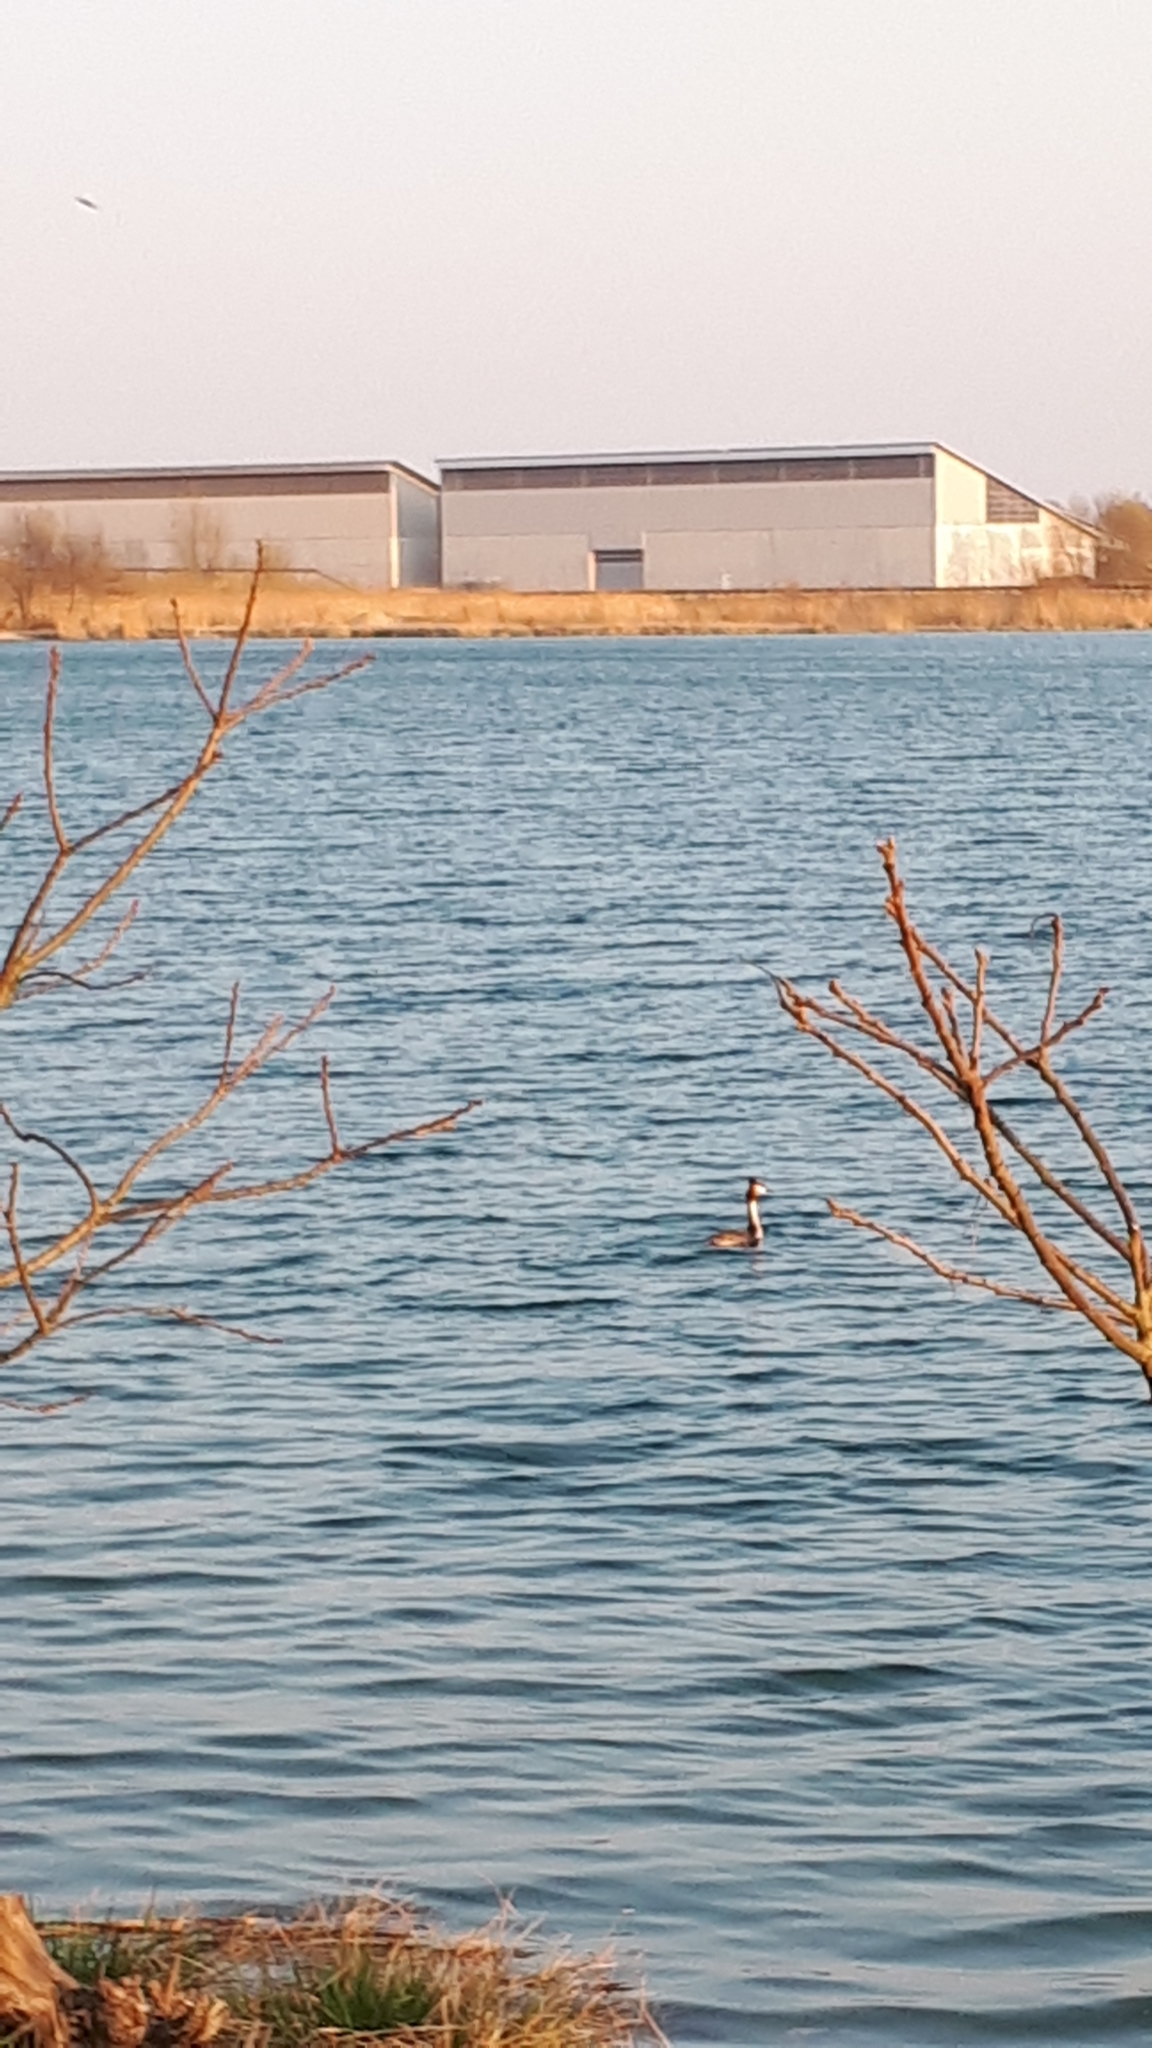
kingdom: Animalia
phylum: Chordata
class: Aves
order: Podicipediformes
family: Podicipedidae
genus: Podiceps
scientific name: Podiceps cristatus
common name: Great crested grebe
